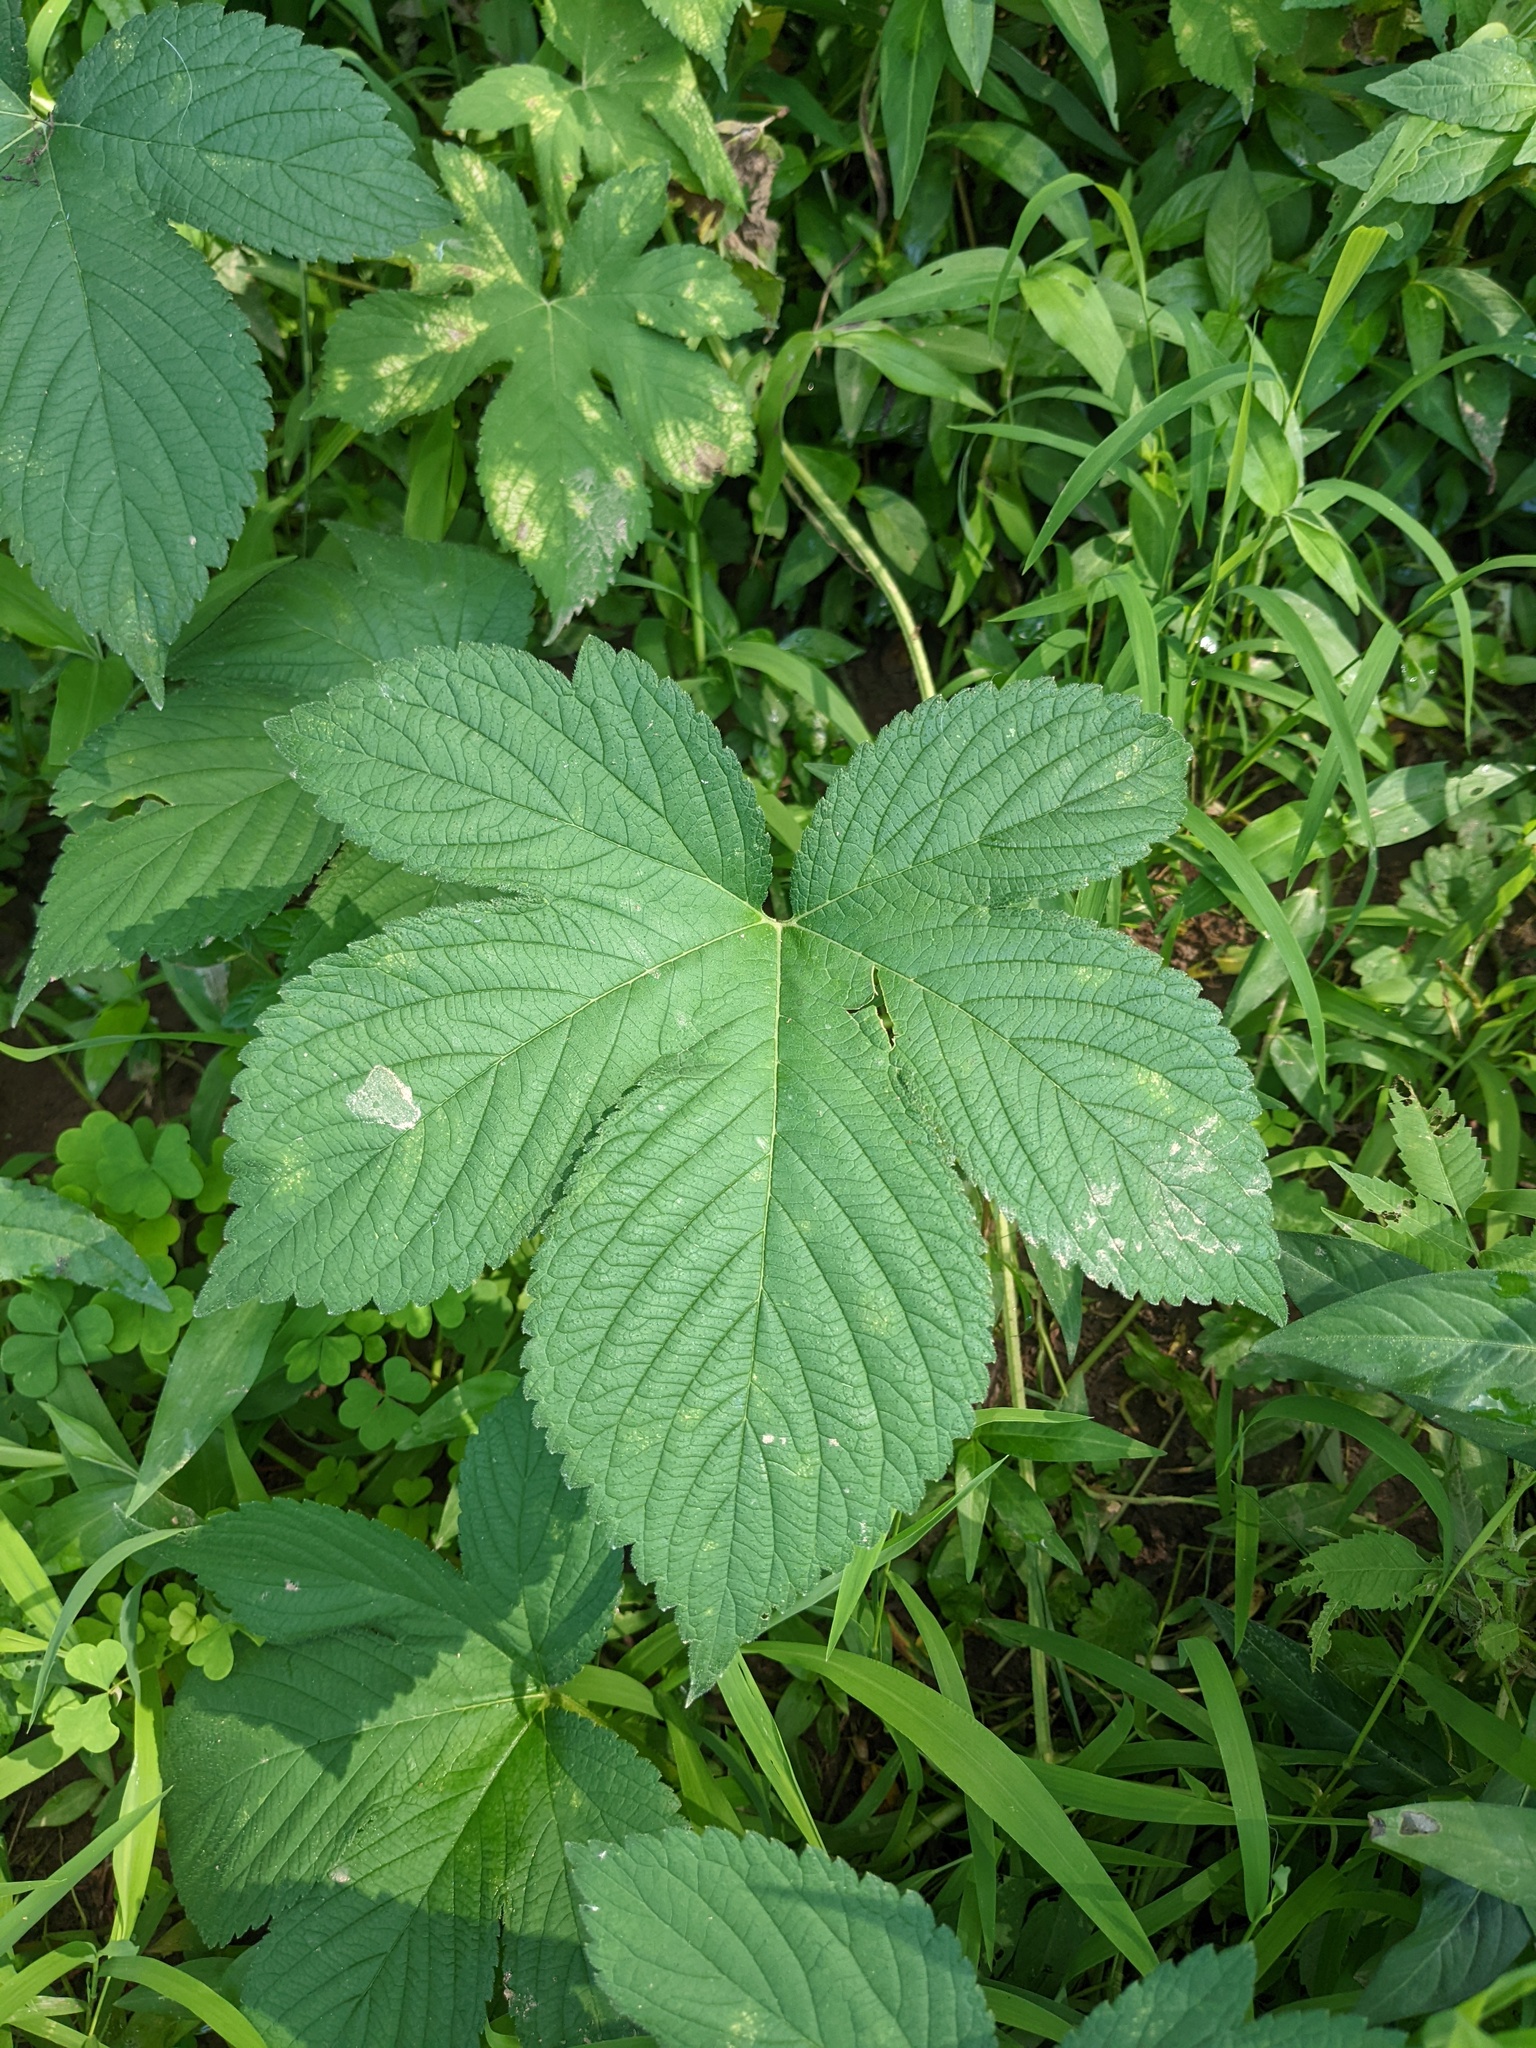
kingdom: Plantae
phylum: Tracheophyta
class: Magnoliopsida
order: Rosales
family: Cannabaceae
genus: Humulus
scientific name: Humulus scandens
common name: Japanese hop
